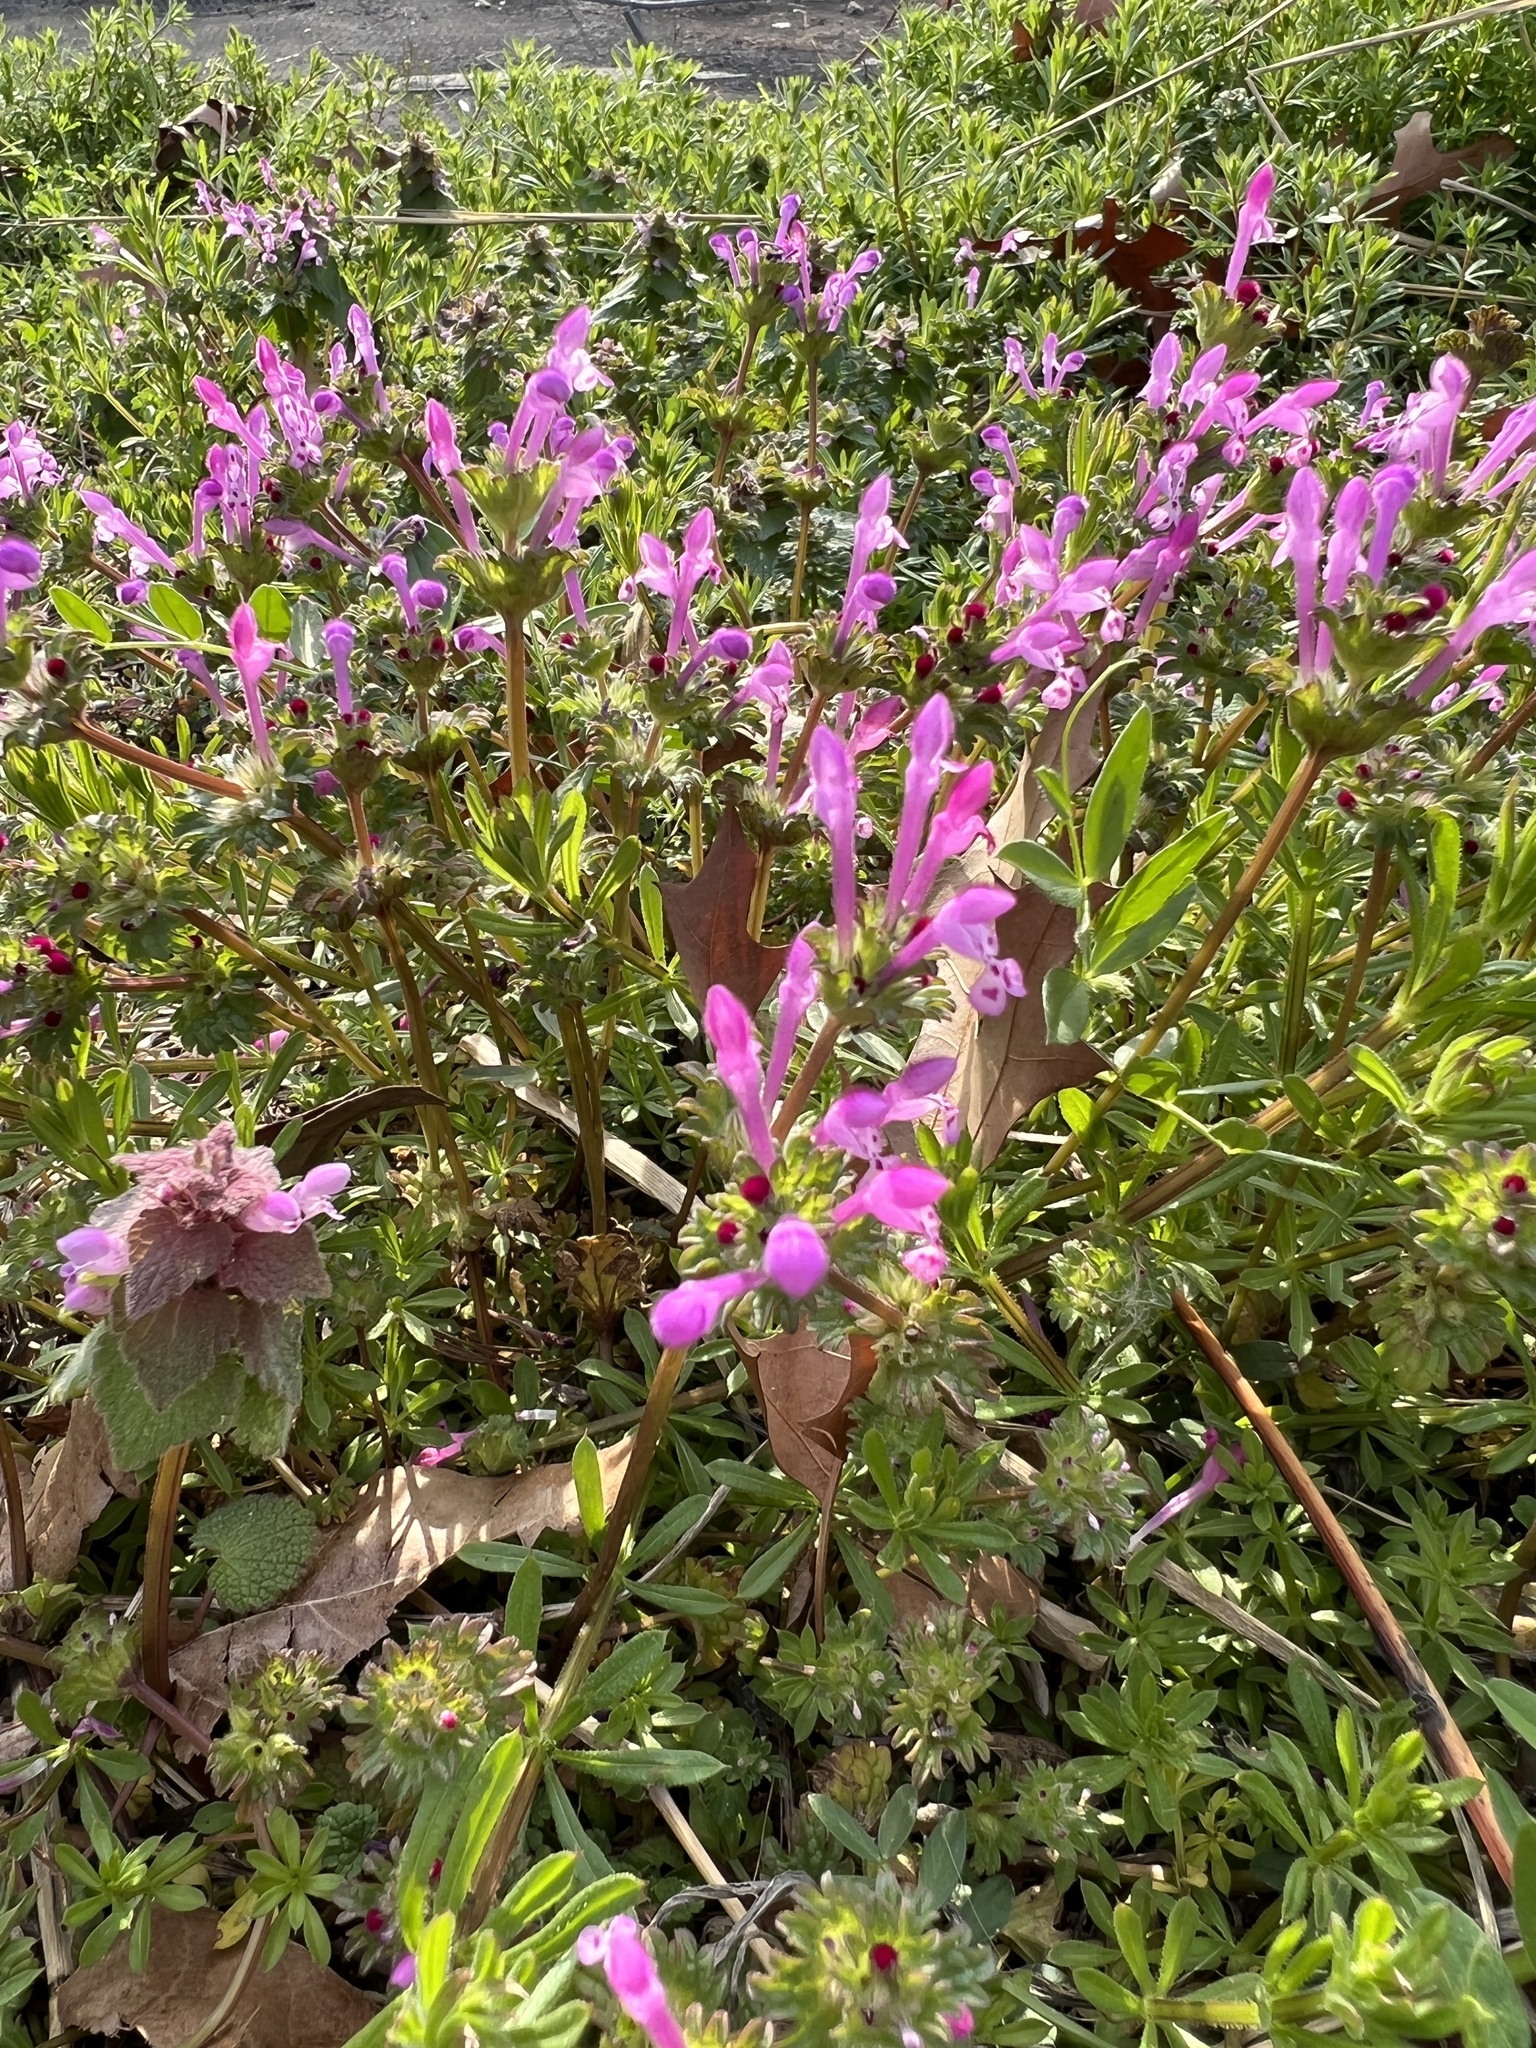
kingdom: Plantae
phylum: Tracheophyta
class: Magnoliopsida
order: Lamiales
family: Lamiaceae
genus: Lamium
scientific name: Lamium amplexicaule
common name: Henbit dead-nettle
